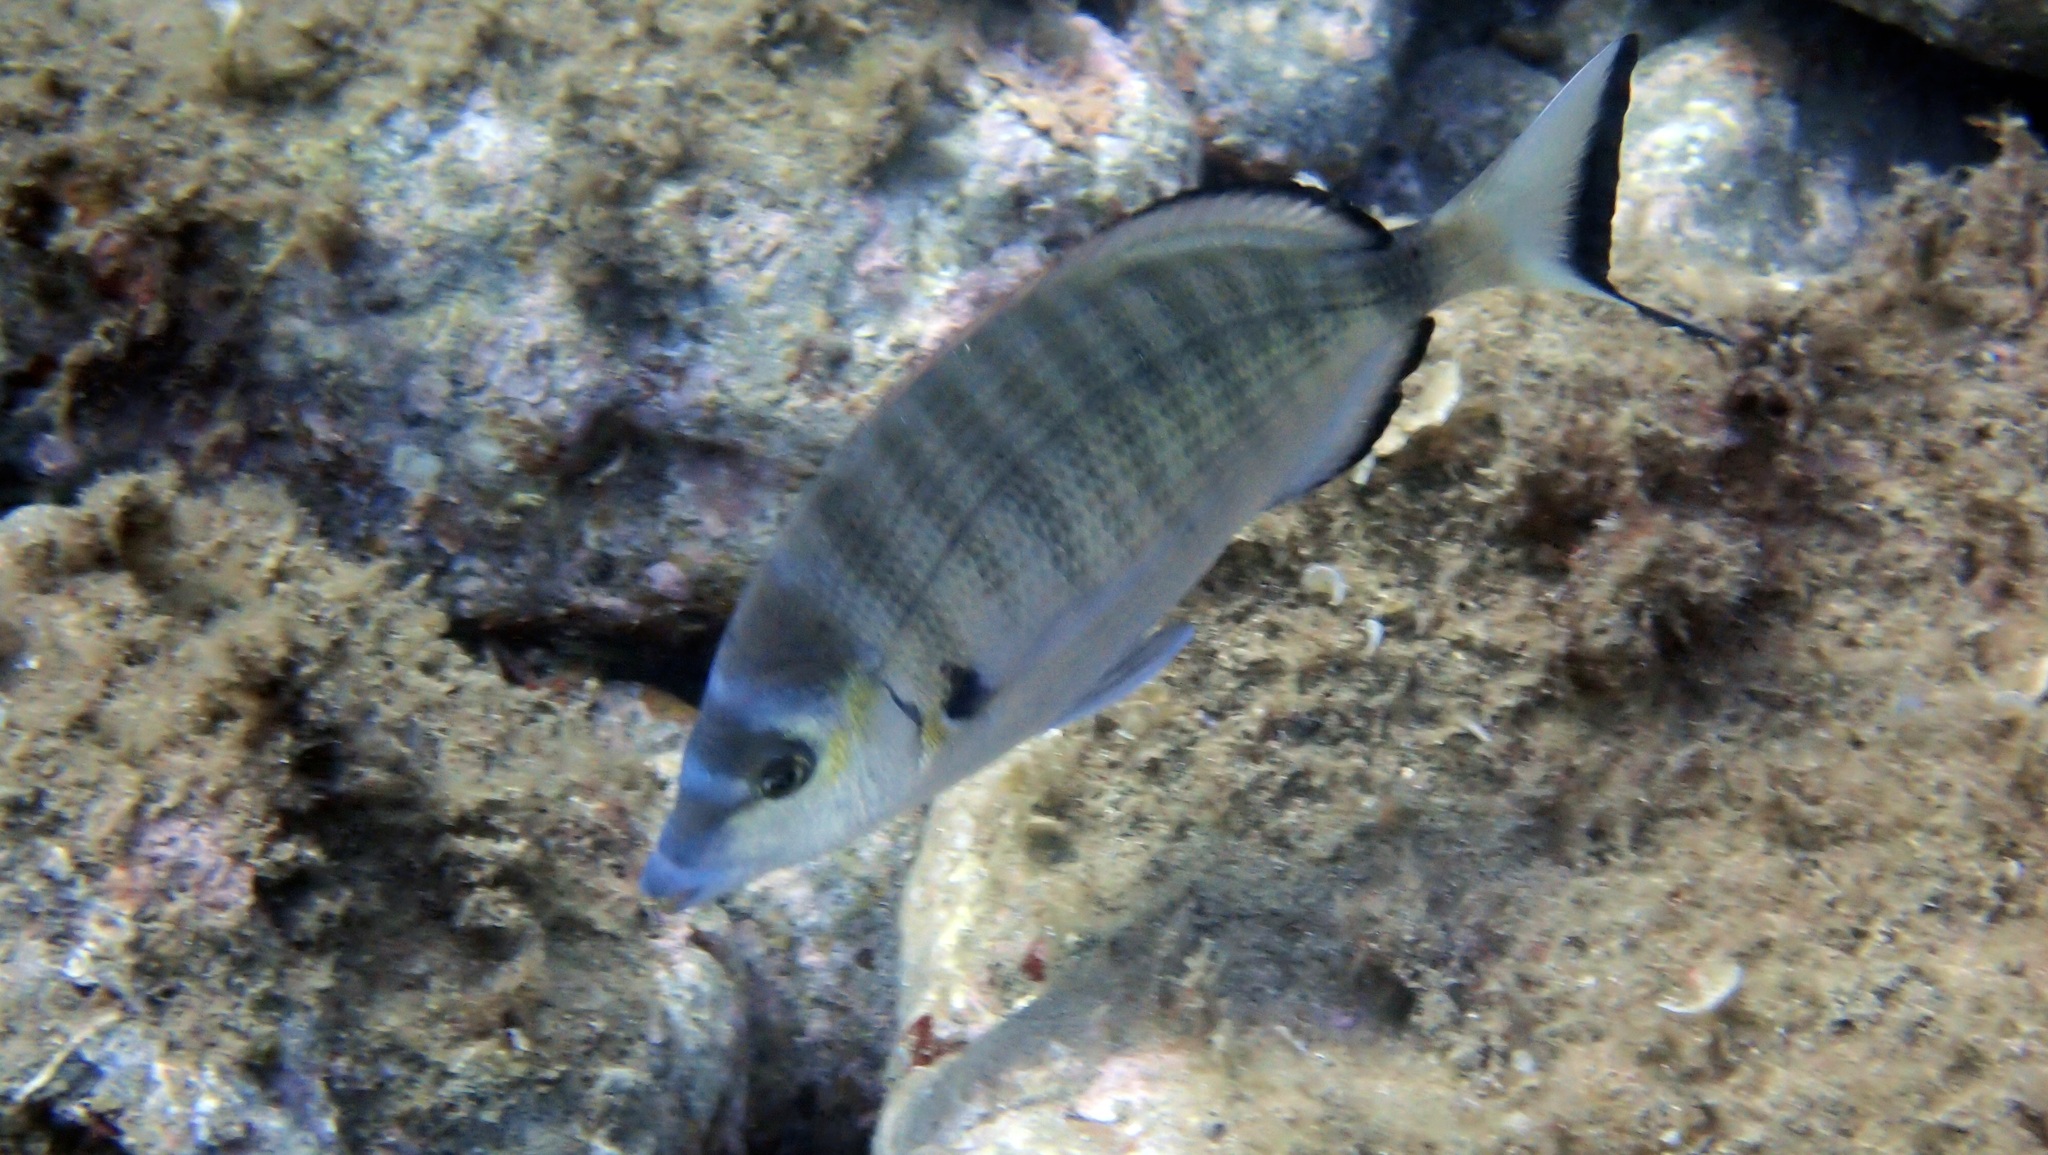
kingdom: Animalia
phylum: Chordata
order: Perciformes
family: Sparidae
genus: Diplodus
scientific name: Diplodus puntazzo
